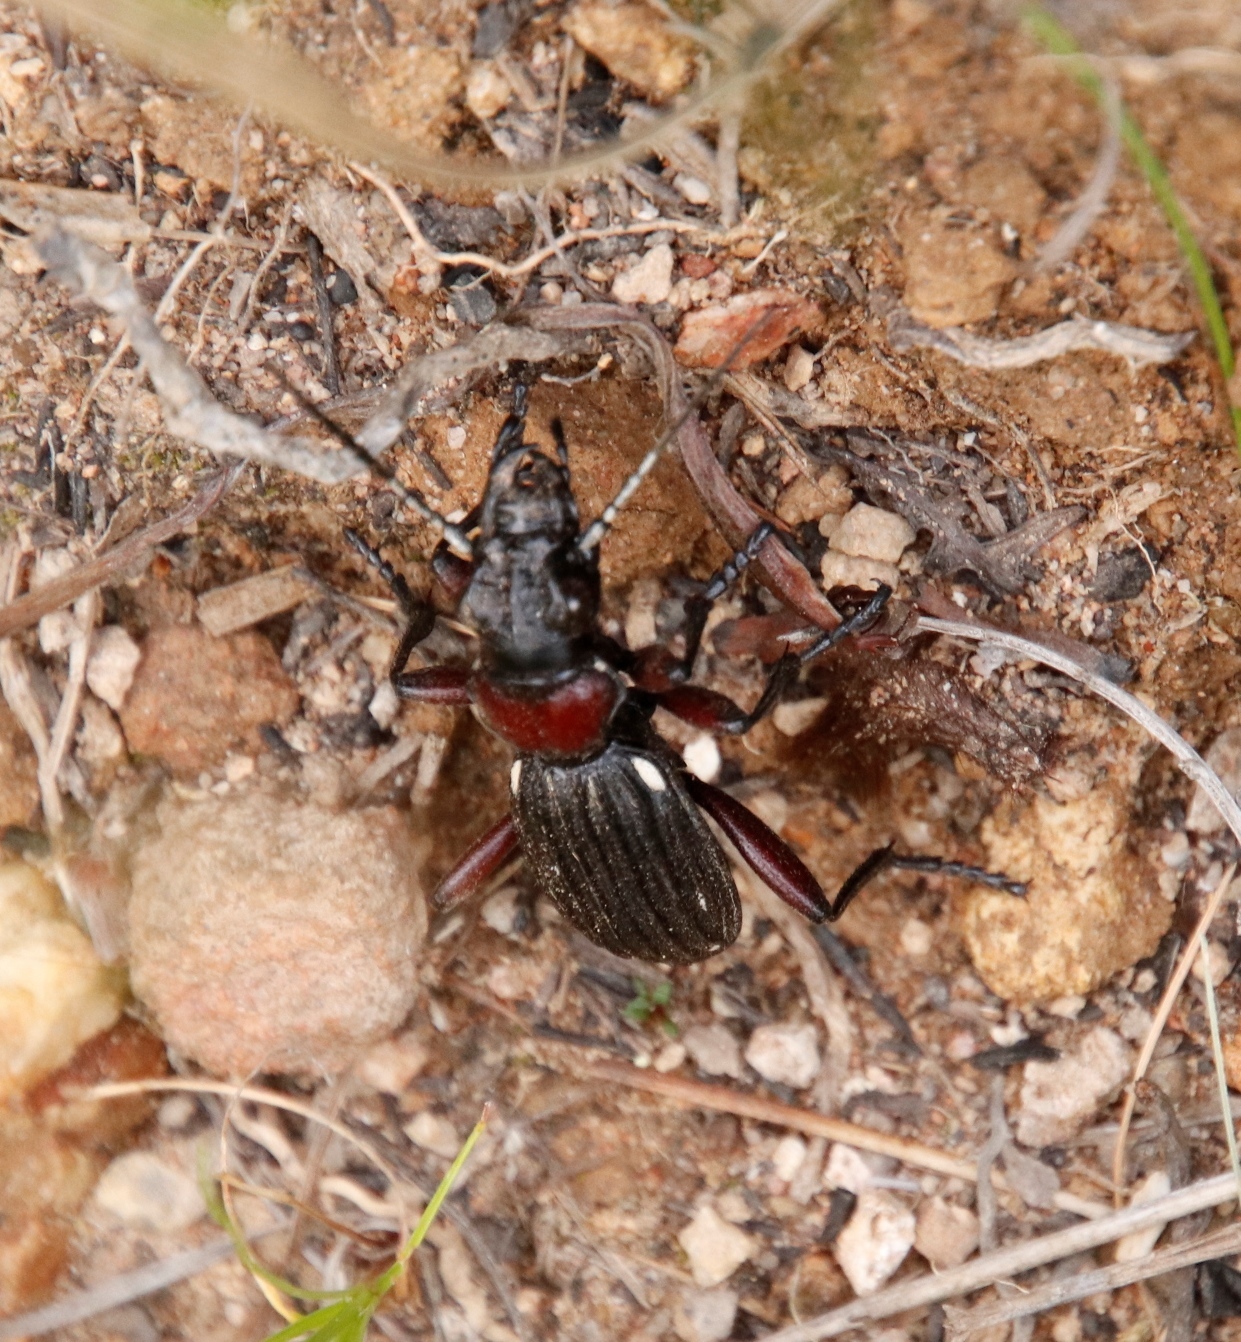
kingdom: Animalia
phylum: Arthropoda
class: Insecta
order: Coleoptera
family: Carabidae
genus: Anthia
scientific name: Anthia decemguttata
